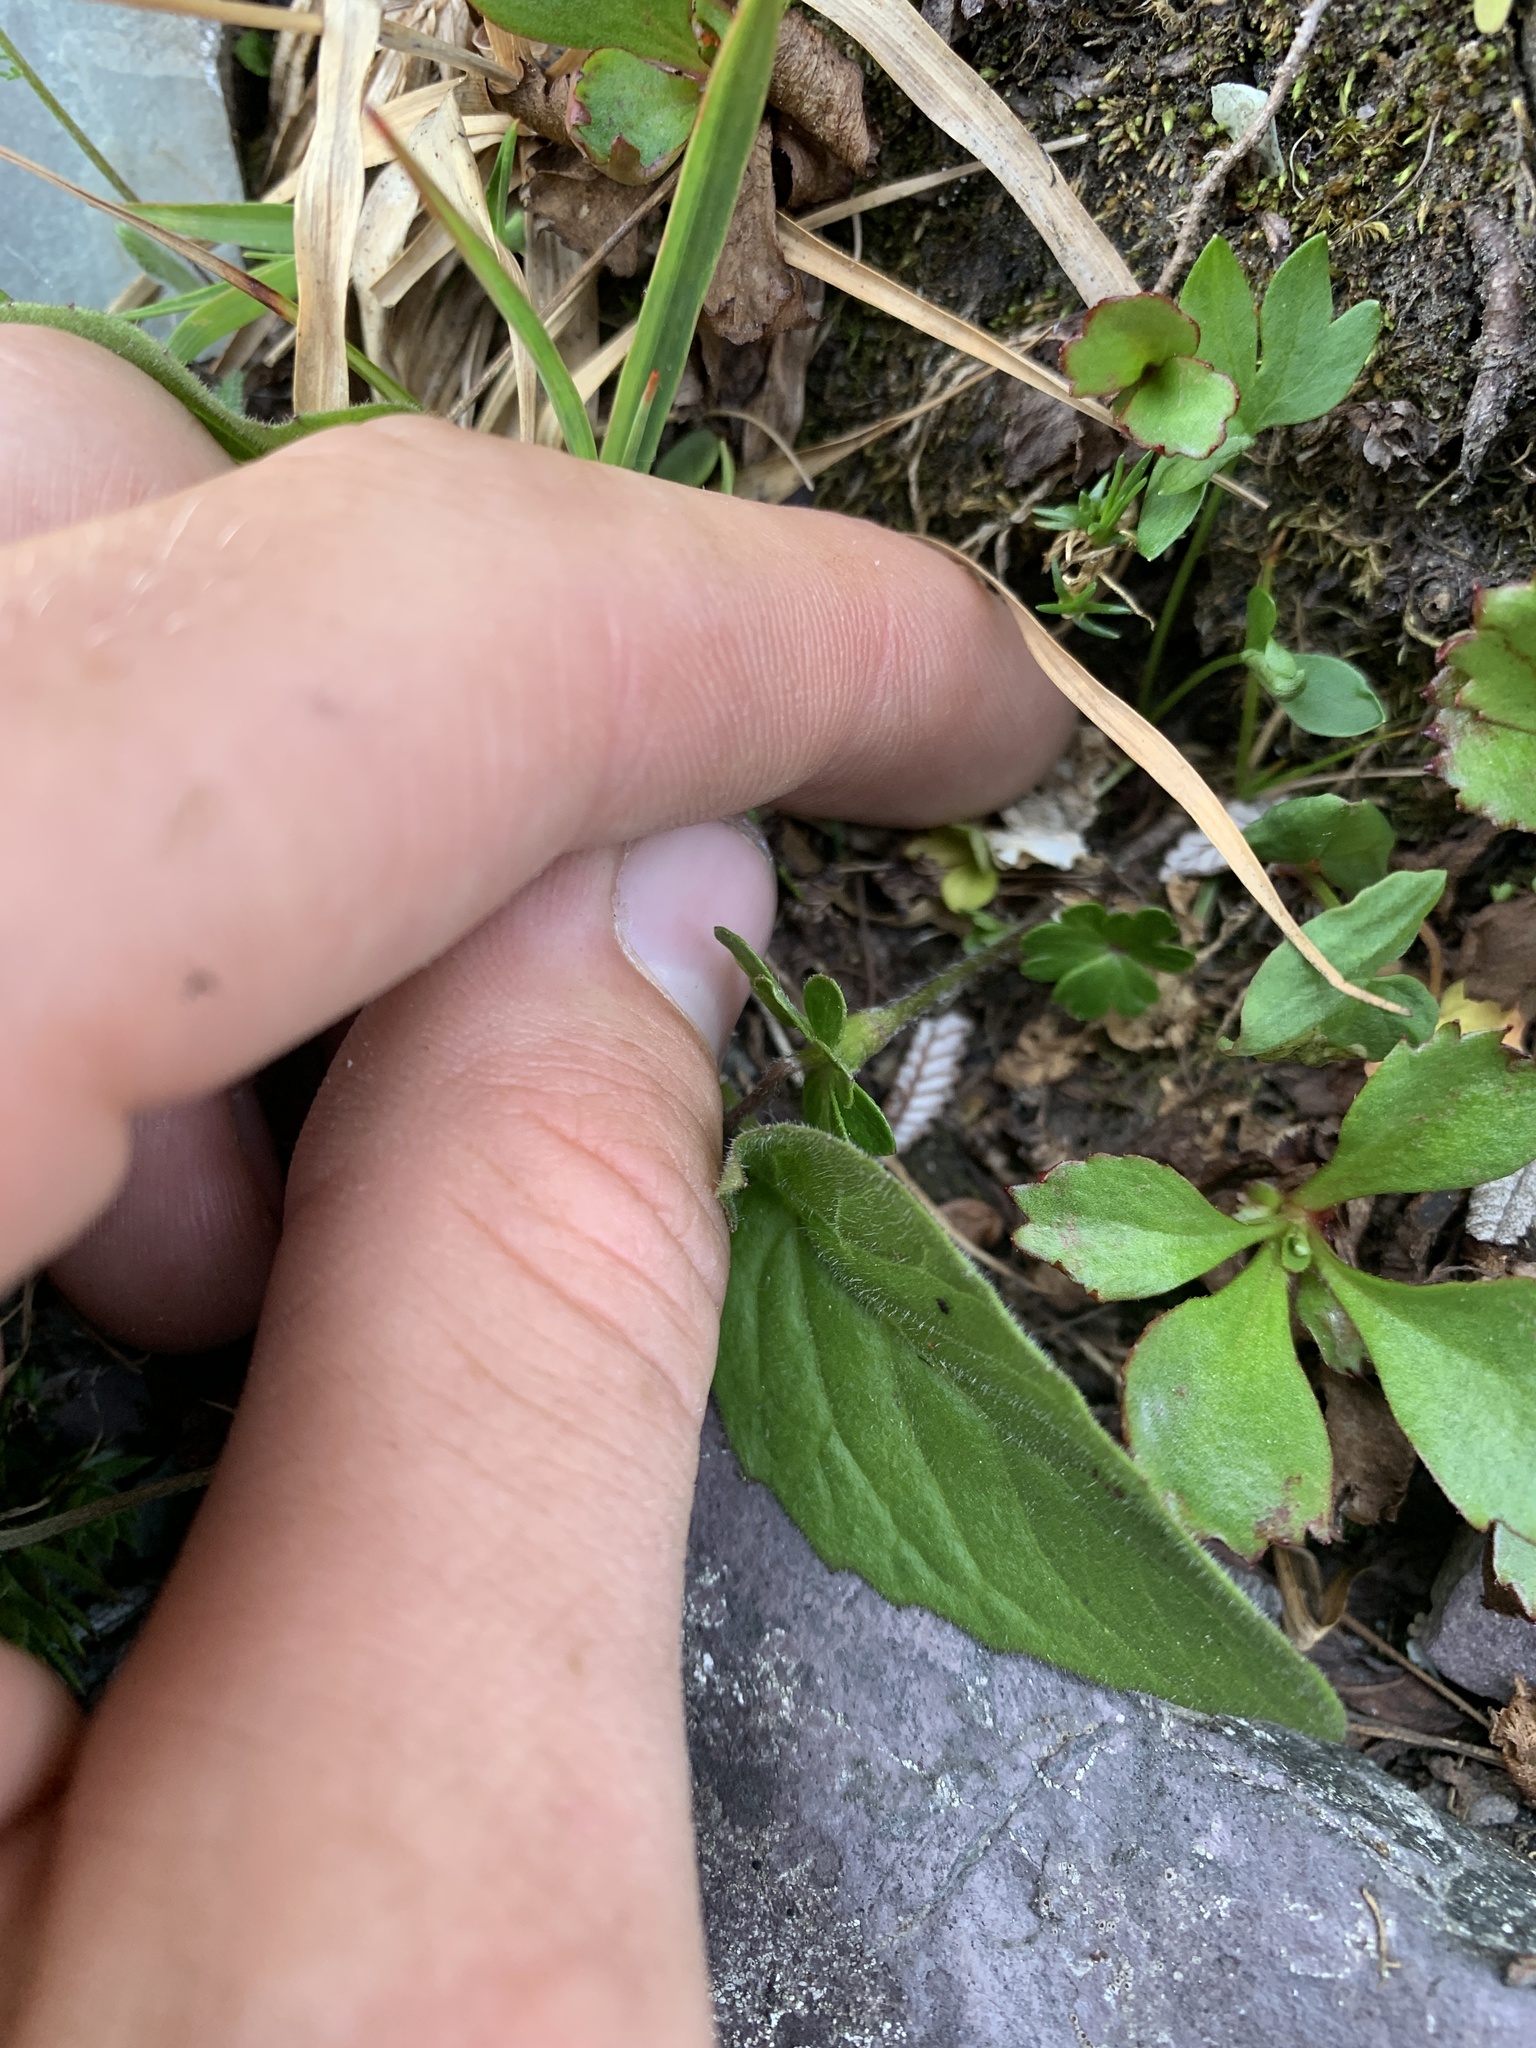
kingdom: Plantae
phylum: Tracheophyta
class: Magnoliopsida
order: Ranunculales
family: Ranunculaceae
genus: Anemone
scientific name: Anemone parviflora
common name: Northern anemone
